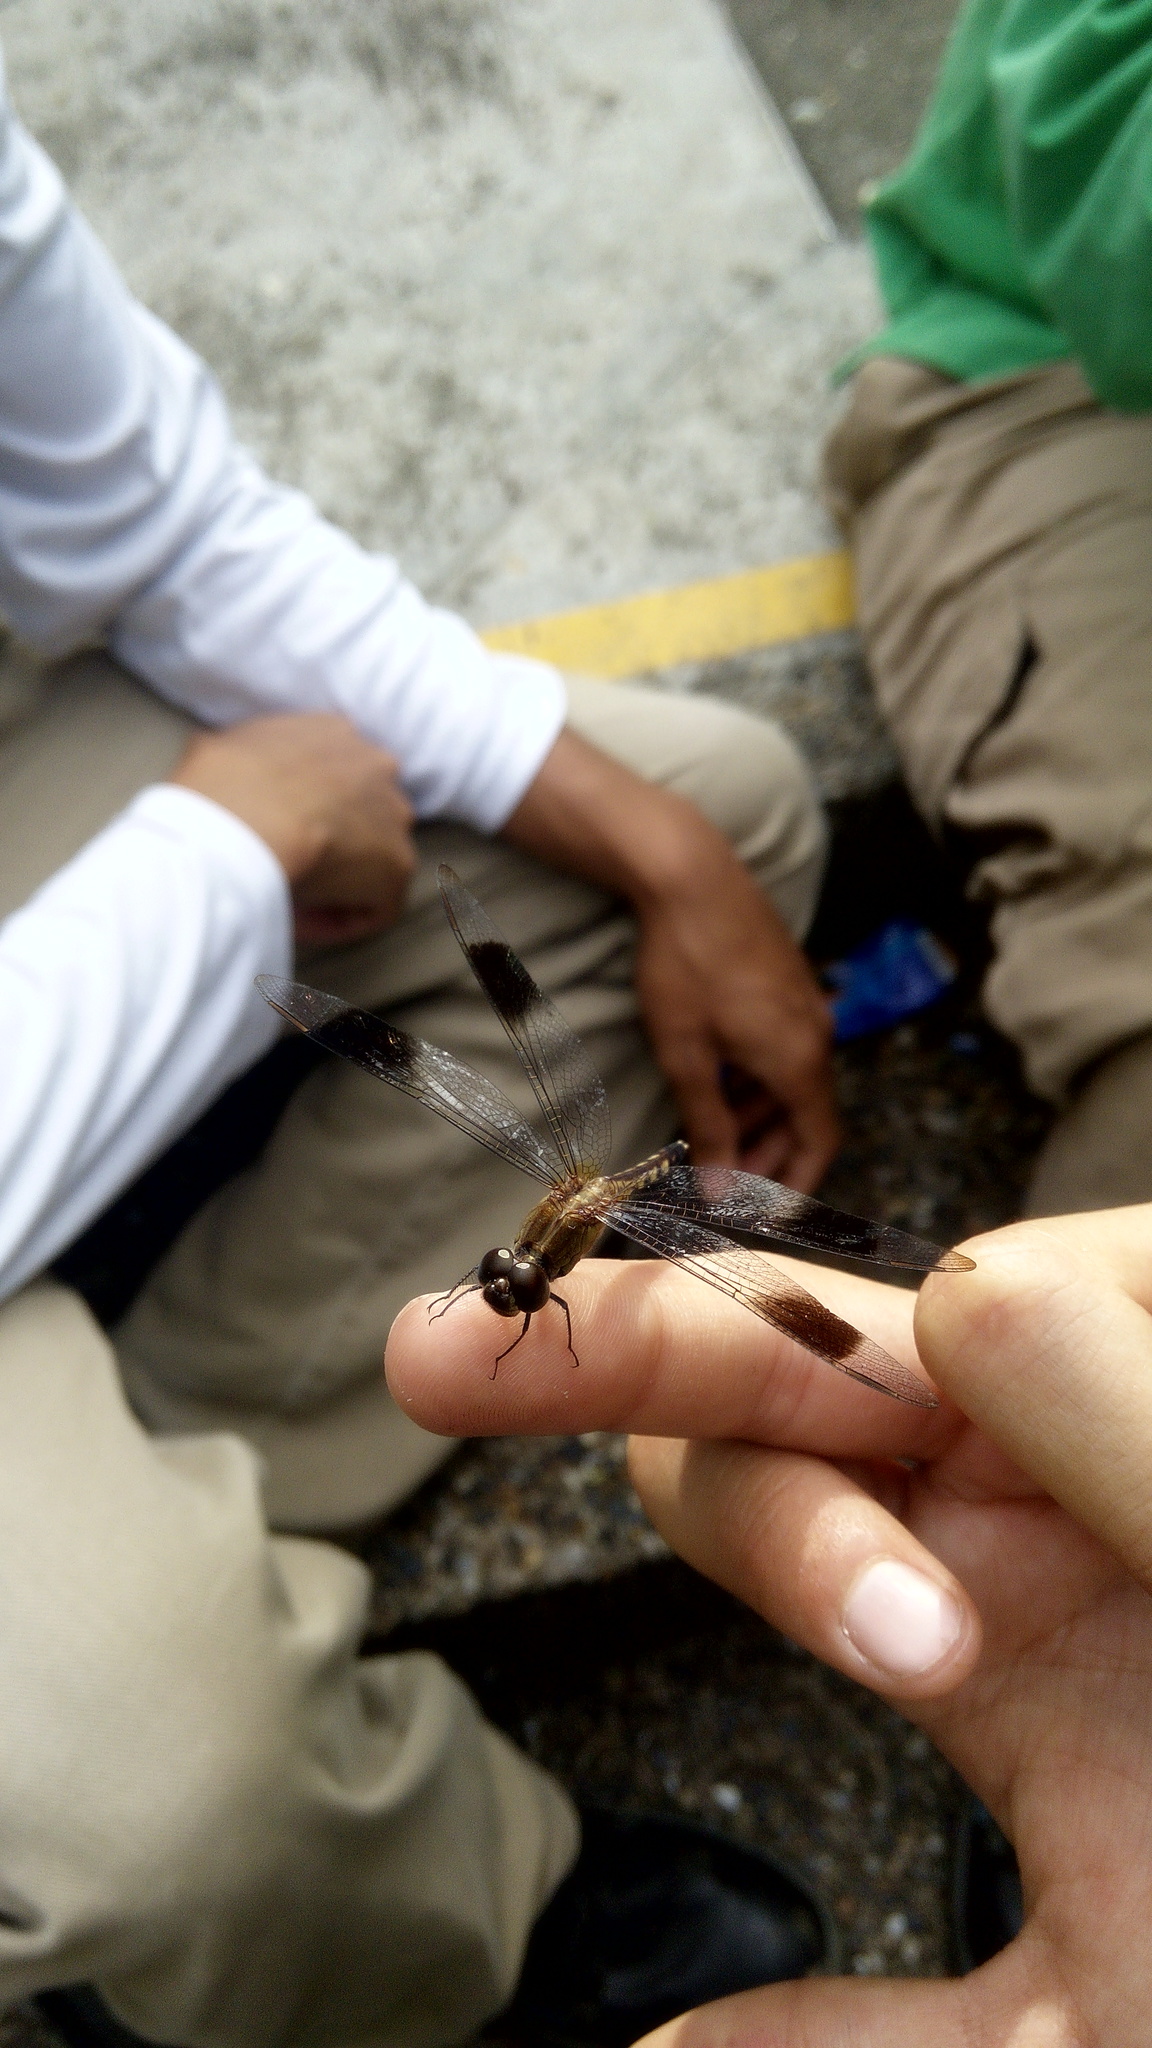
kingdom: Animalia
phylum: Arthropoda
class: Insecta
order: Odonata
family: Libellulidae
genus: Erythrodiplax
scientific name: Erythrodiplax umbrata
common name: Band-winged dragonlet
